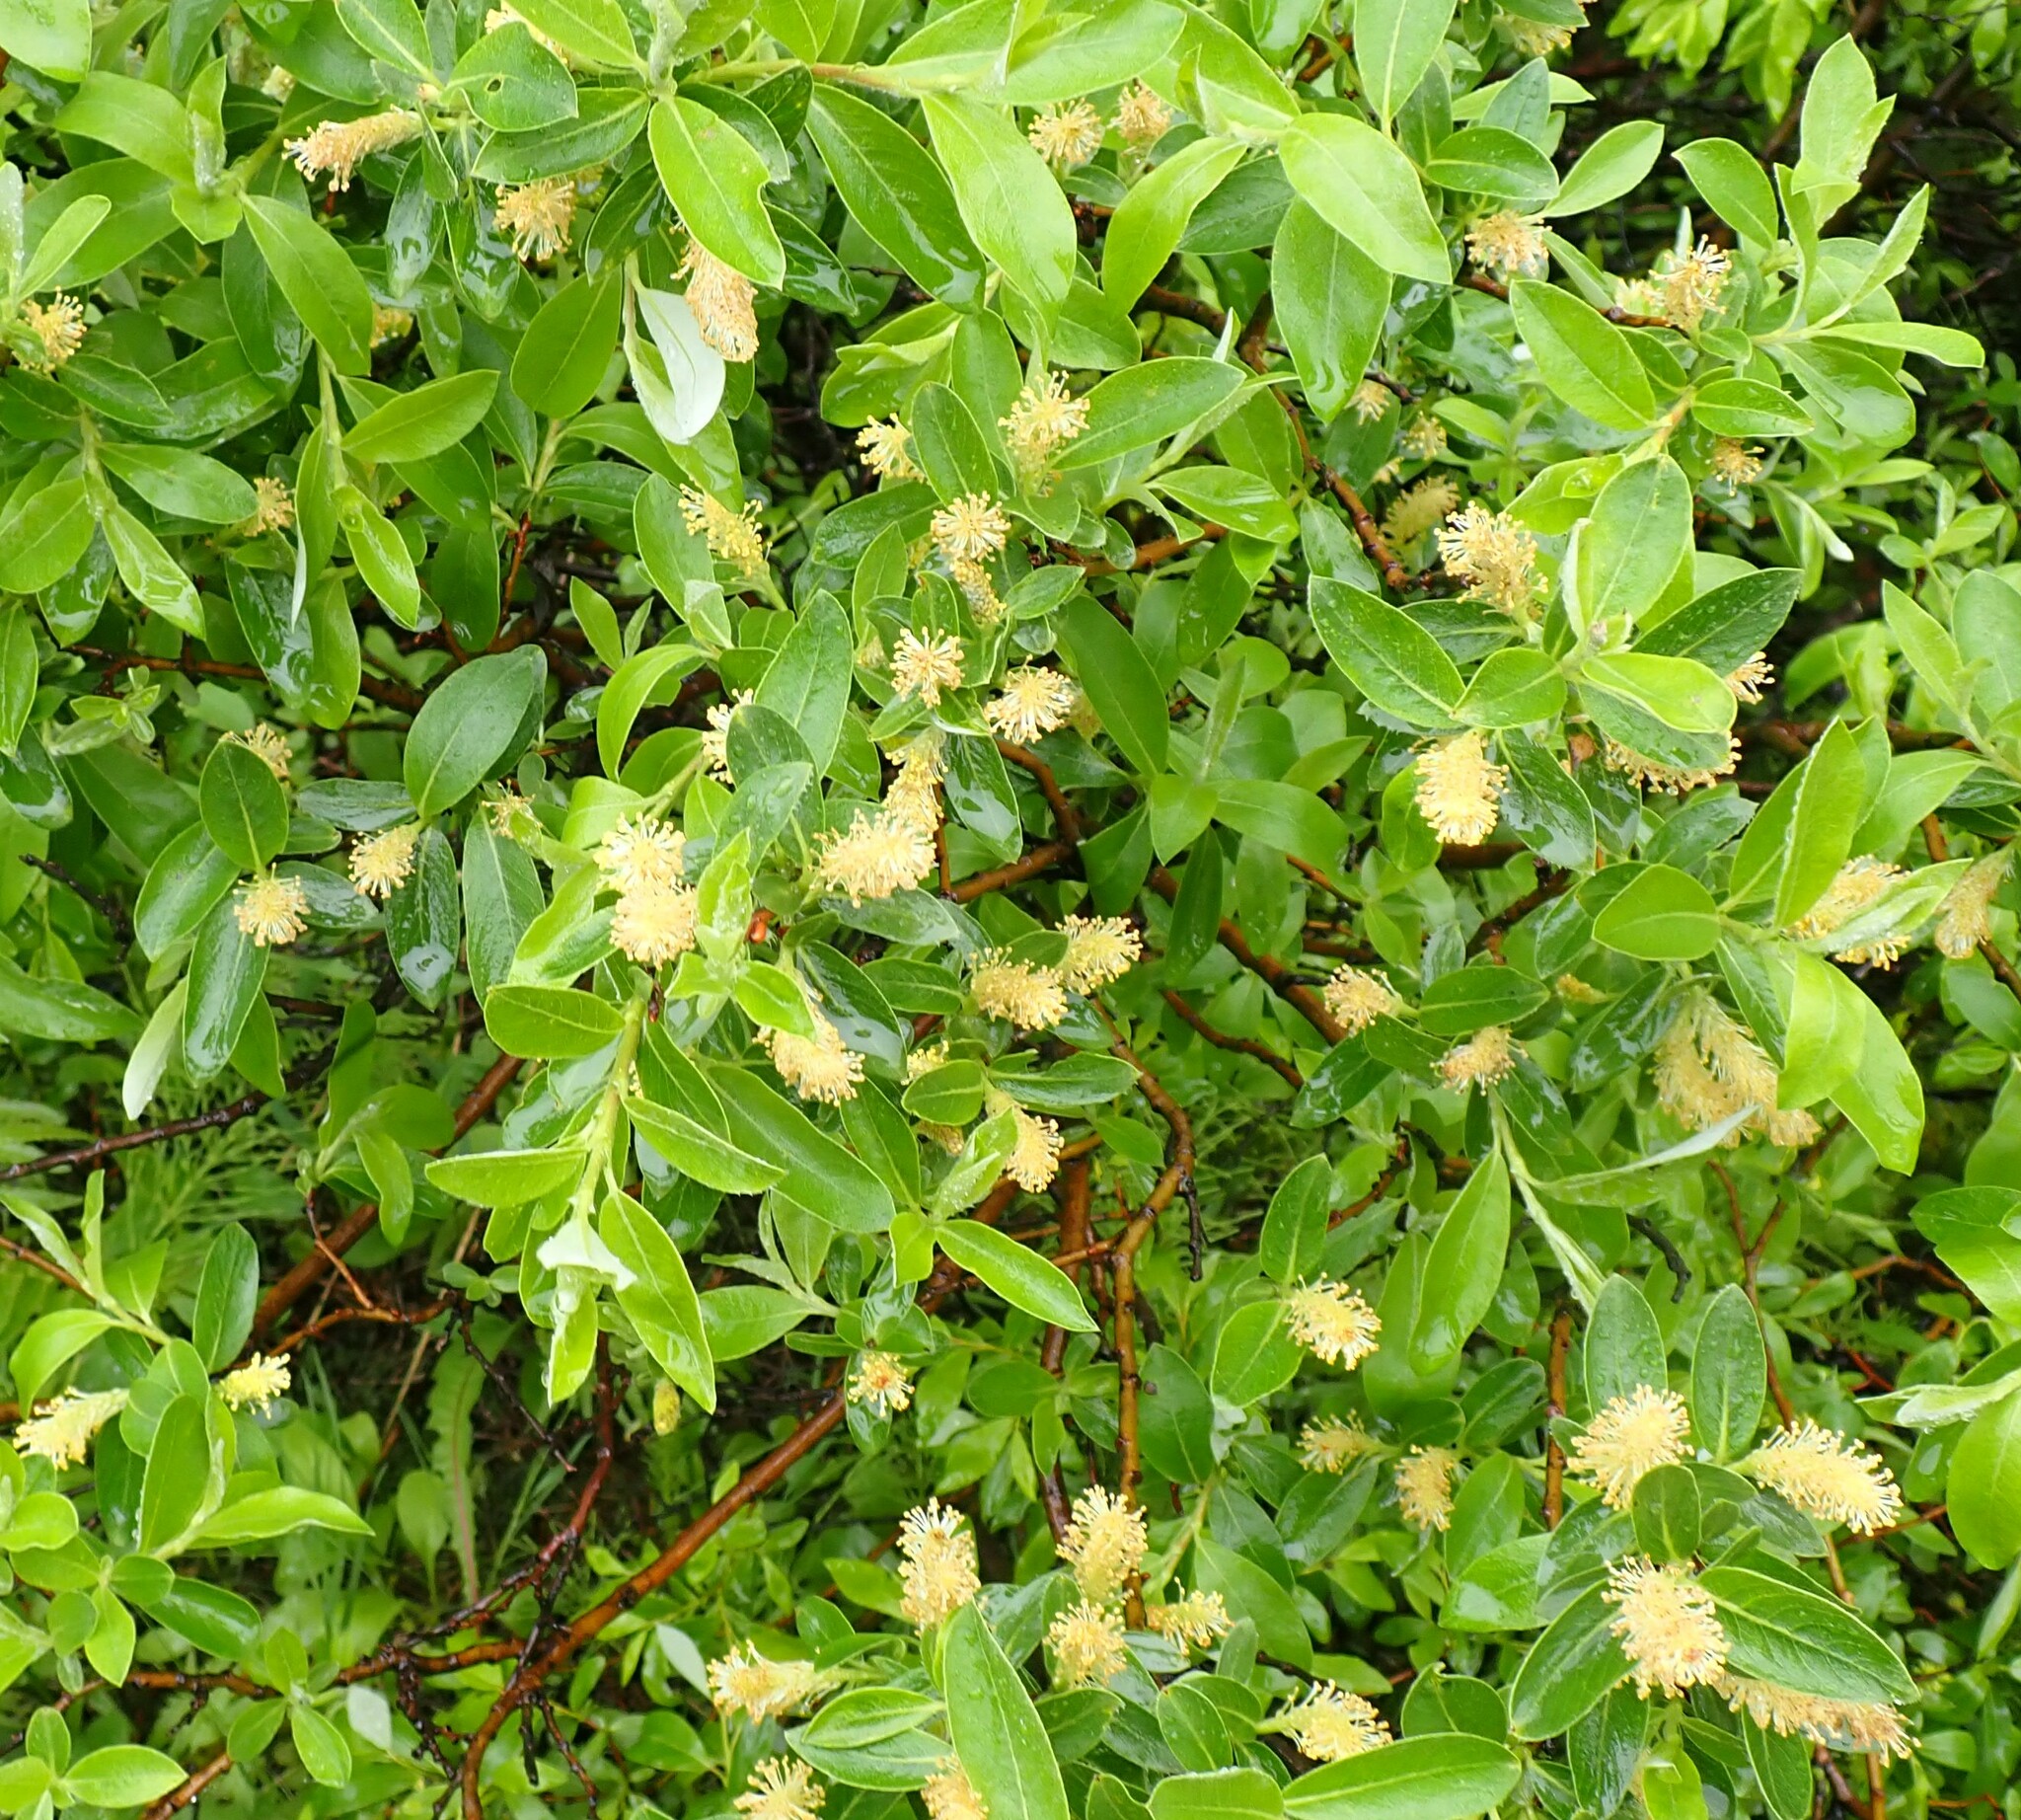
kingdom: Plantae
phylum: Tracheophyta
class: Magnoliopsida
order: Malpighiales
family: Salicaceae
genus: Salix
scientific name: Salix glauca
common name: Glaucous willow
